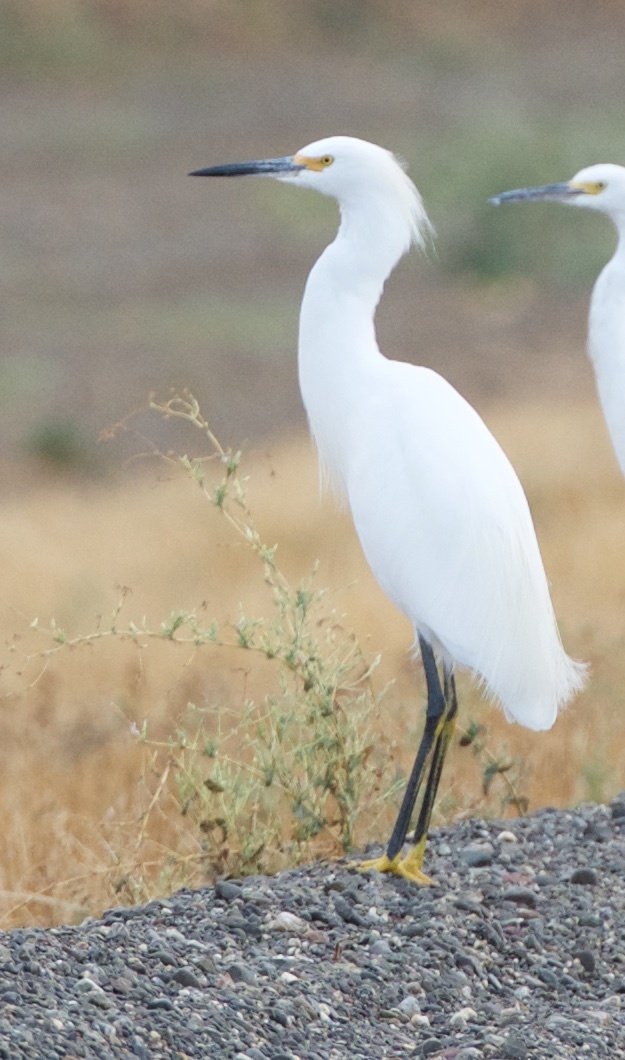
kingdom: Animalia
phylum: Chordata
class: Aves
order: Pelecaniformes
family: Ardeidae
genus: Egretta
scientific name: Egretta thula
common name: Snowy egret
